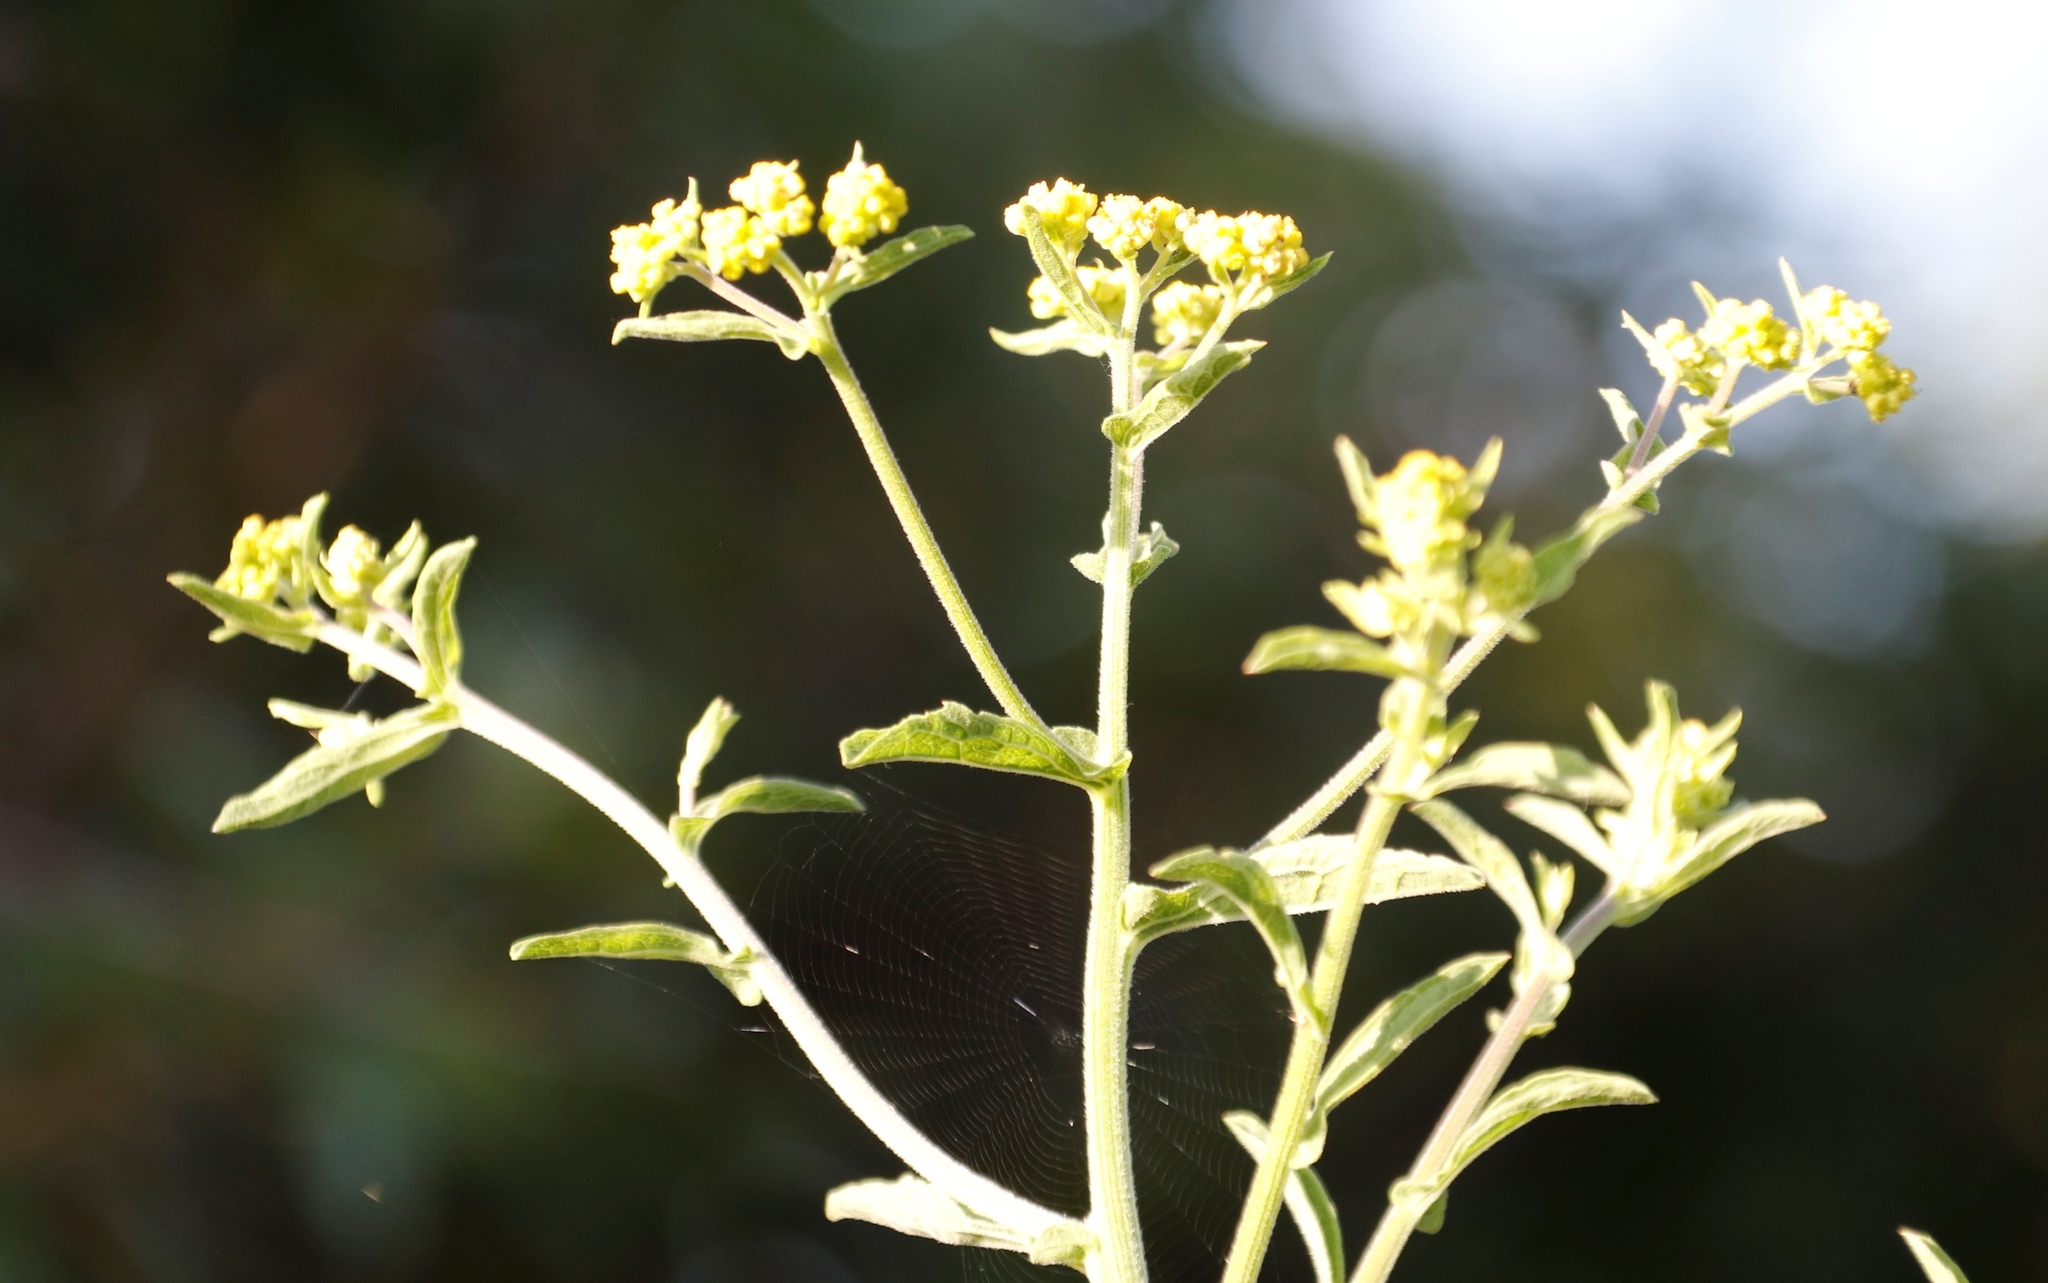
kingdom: Plantae
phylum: Tracheophyta
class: Magnoliopsida
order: Asterales
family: Asteraceae
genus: Nidorella
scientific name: Nidorella auriculata
